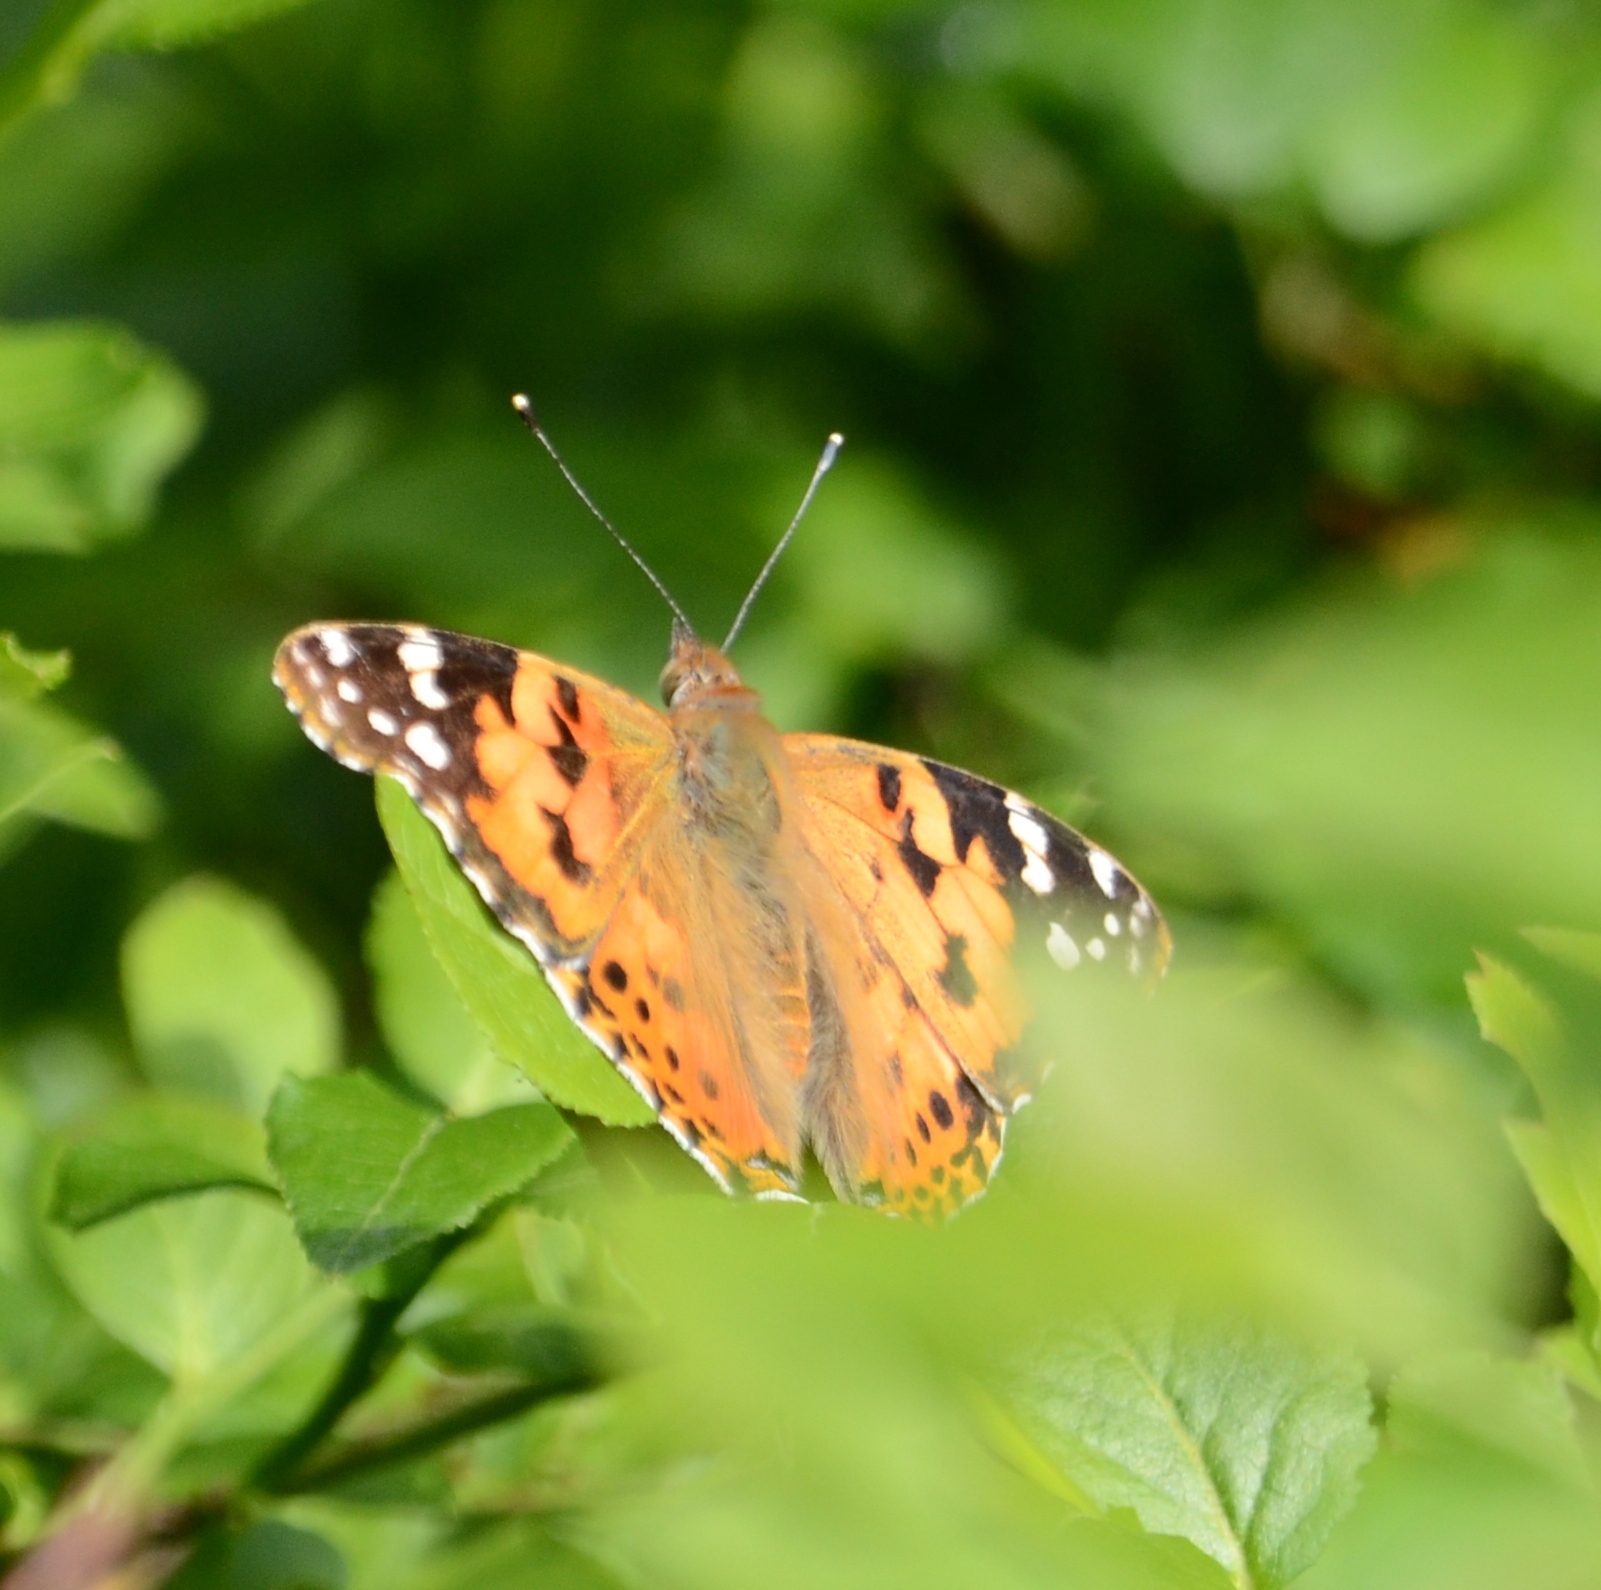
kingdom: Animalia
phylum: Arthropoda
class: Insecta
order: Lepidoptera
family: Nymphalidae
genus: Vanessa
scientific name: Vanessa cardui
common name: Painted lady
